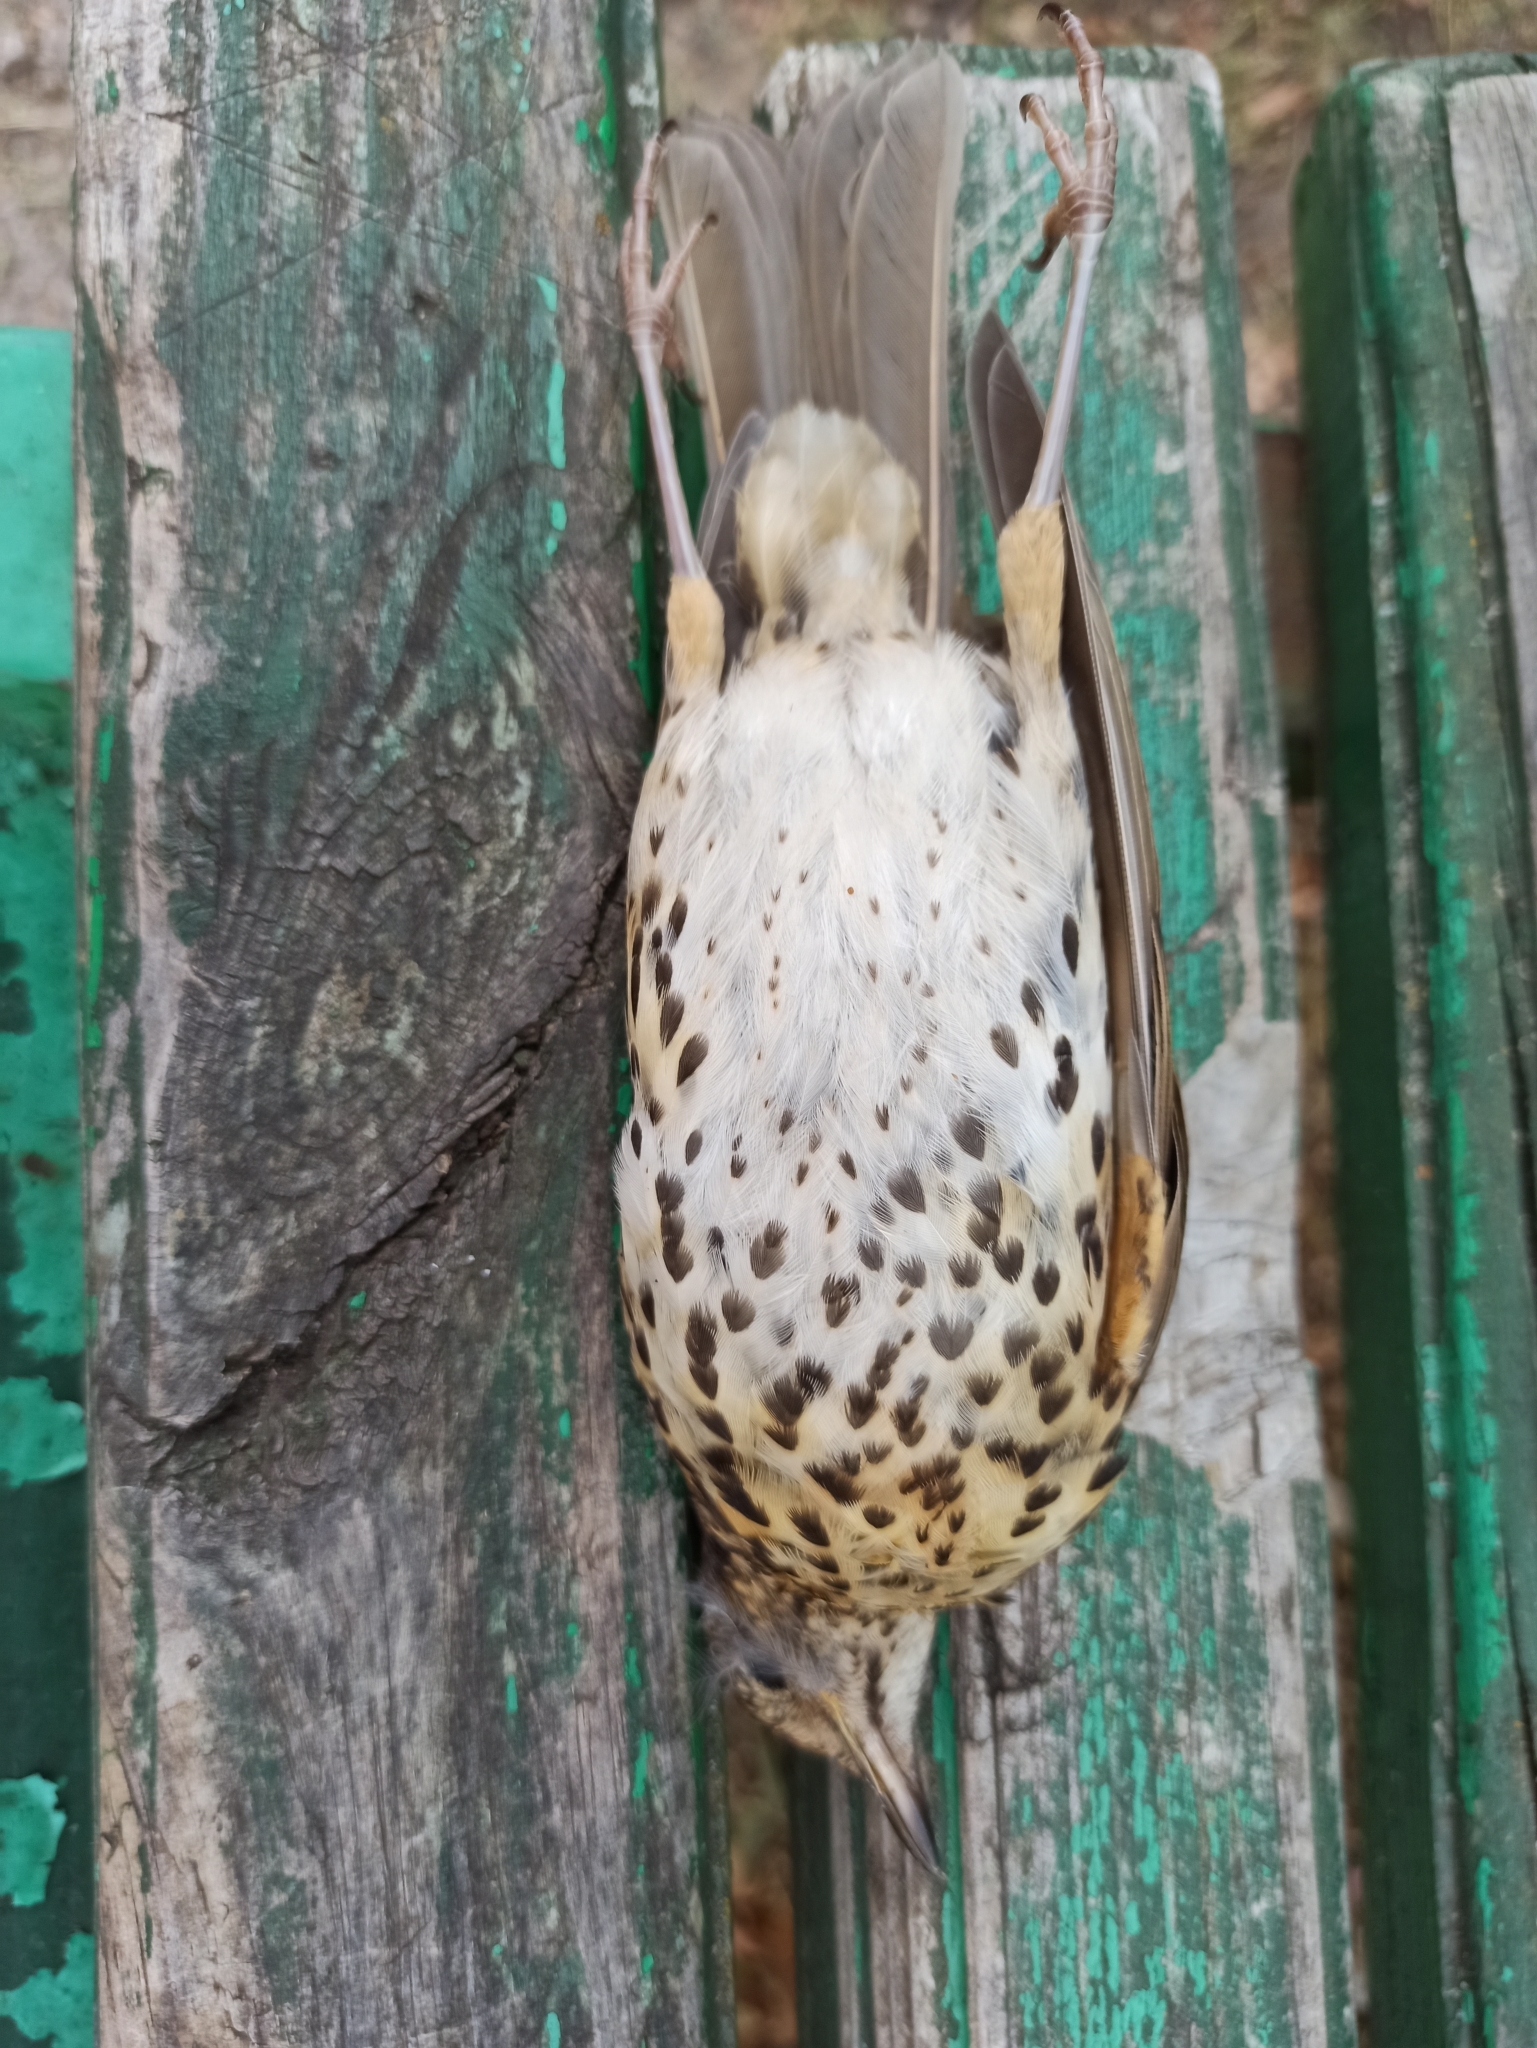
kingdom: Animalia
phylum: Chordata
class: Aves
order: Passeriformes
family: Turdidae
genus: Turdus
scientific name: Turdus philomelos
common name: Song thrush
